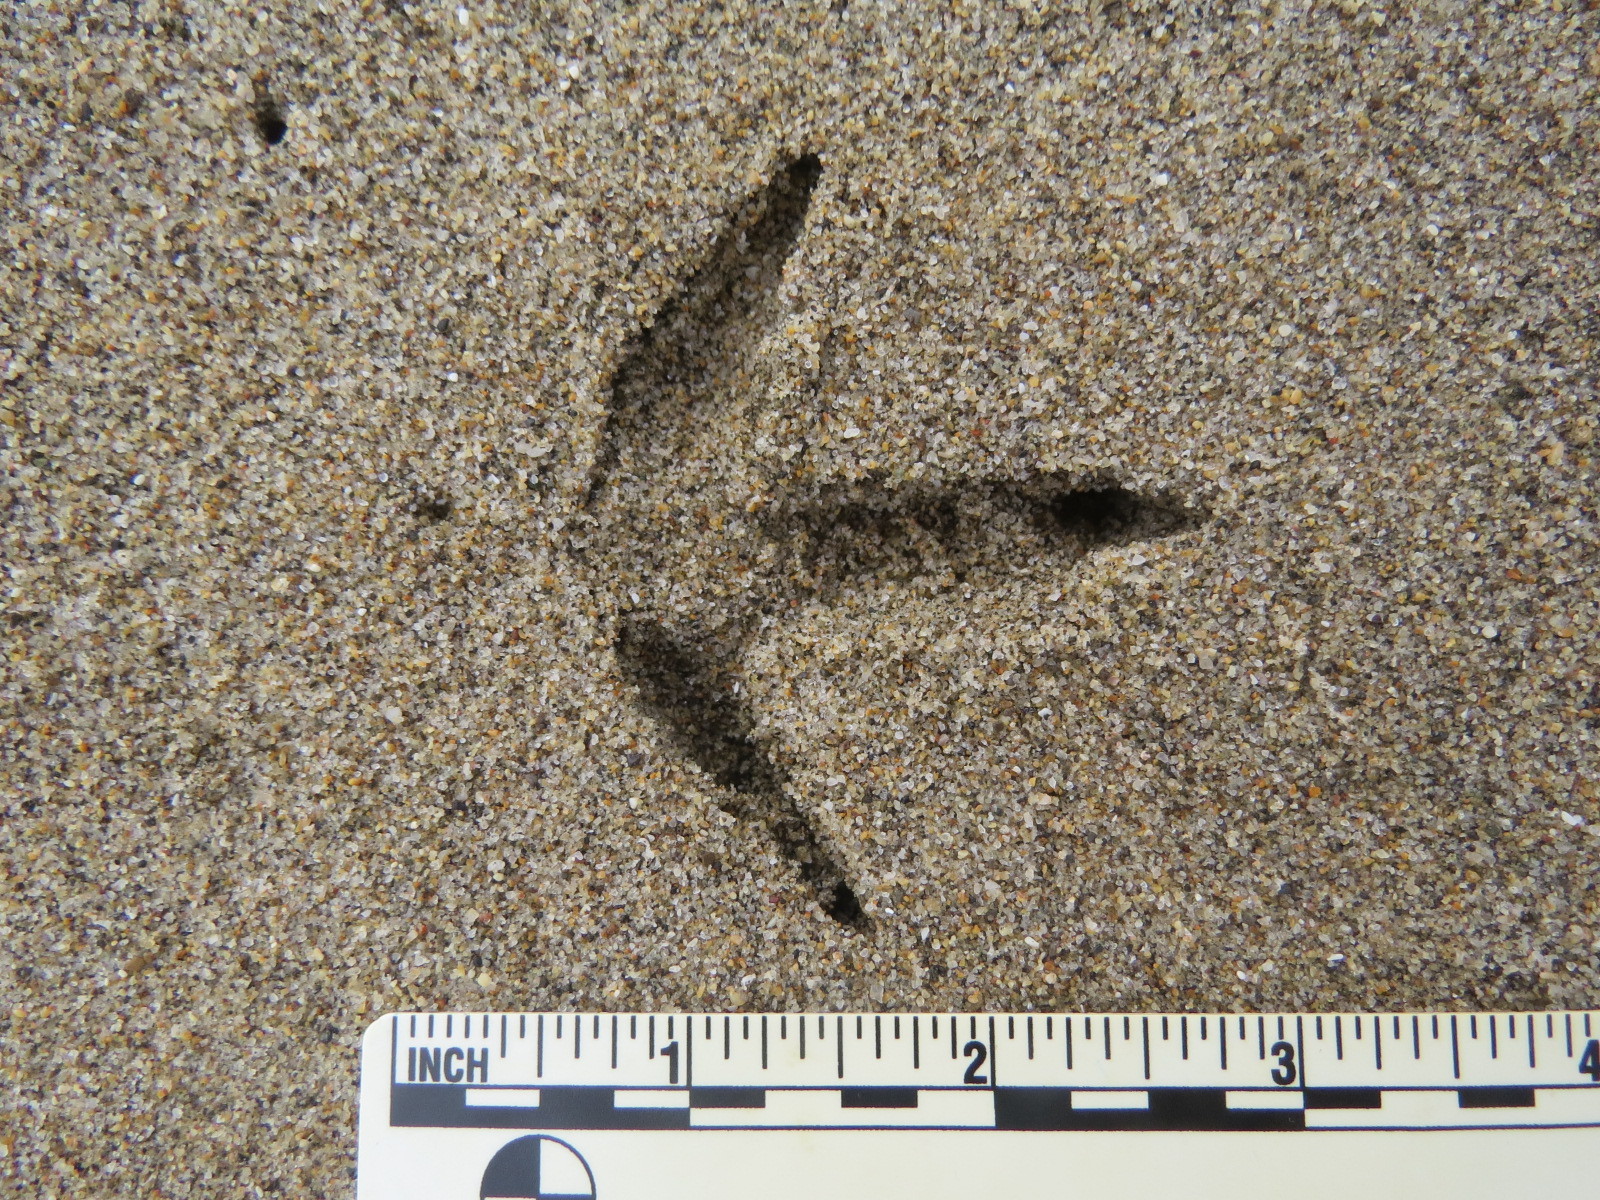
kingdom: Animalia
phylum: Chordata
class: Aves
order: Charadriiformes
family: Scolopacidae
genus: Numenius
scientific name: Numenius americanus
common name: Long-billed curlew
